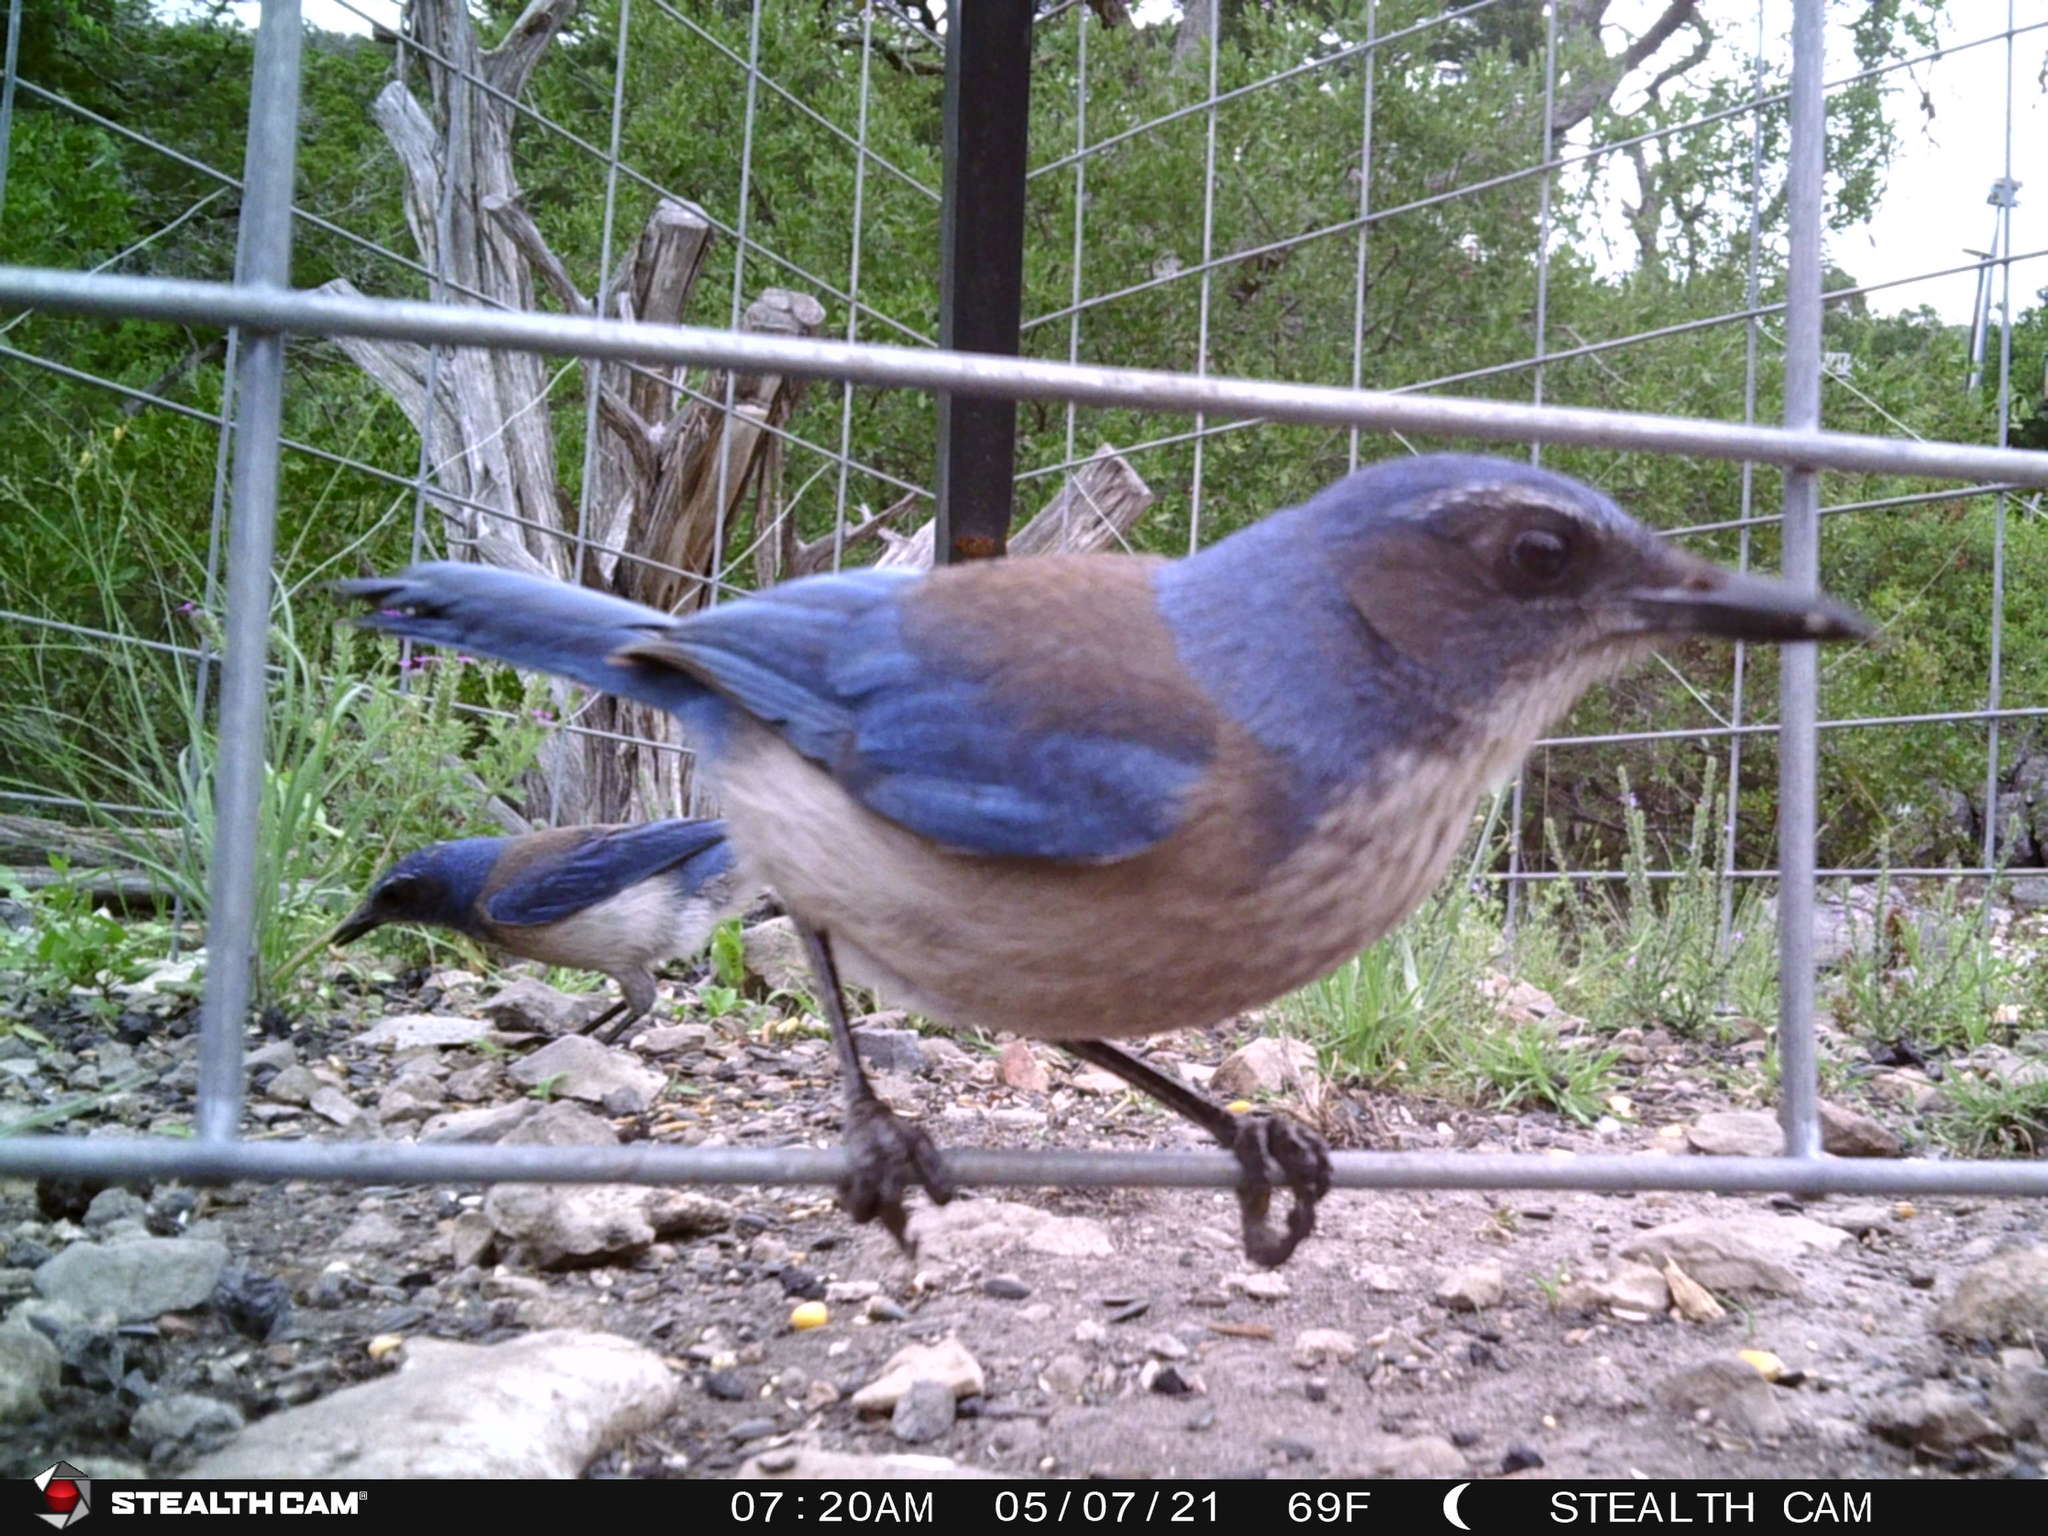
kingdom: Animalia
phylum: Chordata
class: Aves
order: Passeriformes
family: Corvidae
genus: Aphelocoma
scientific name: Aphelocoma woodhouseii
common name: Woodhouse's scrub-jay
